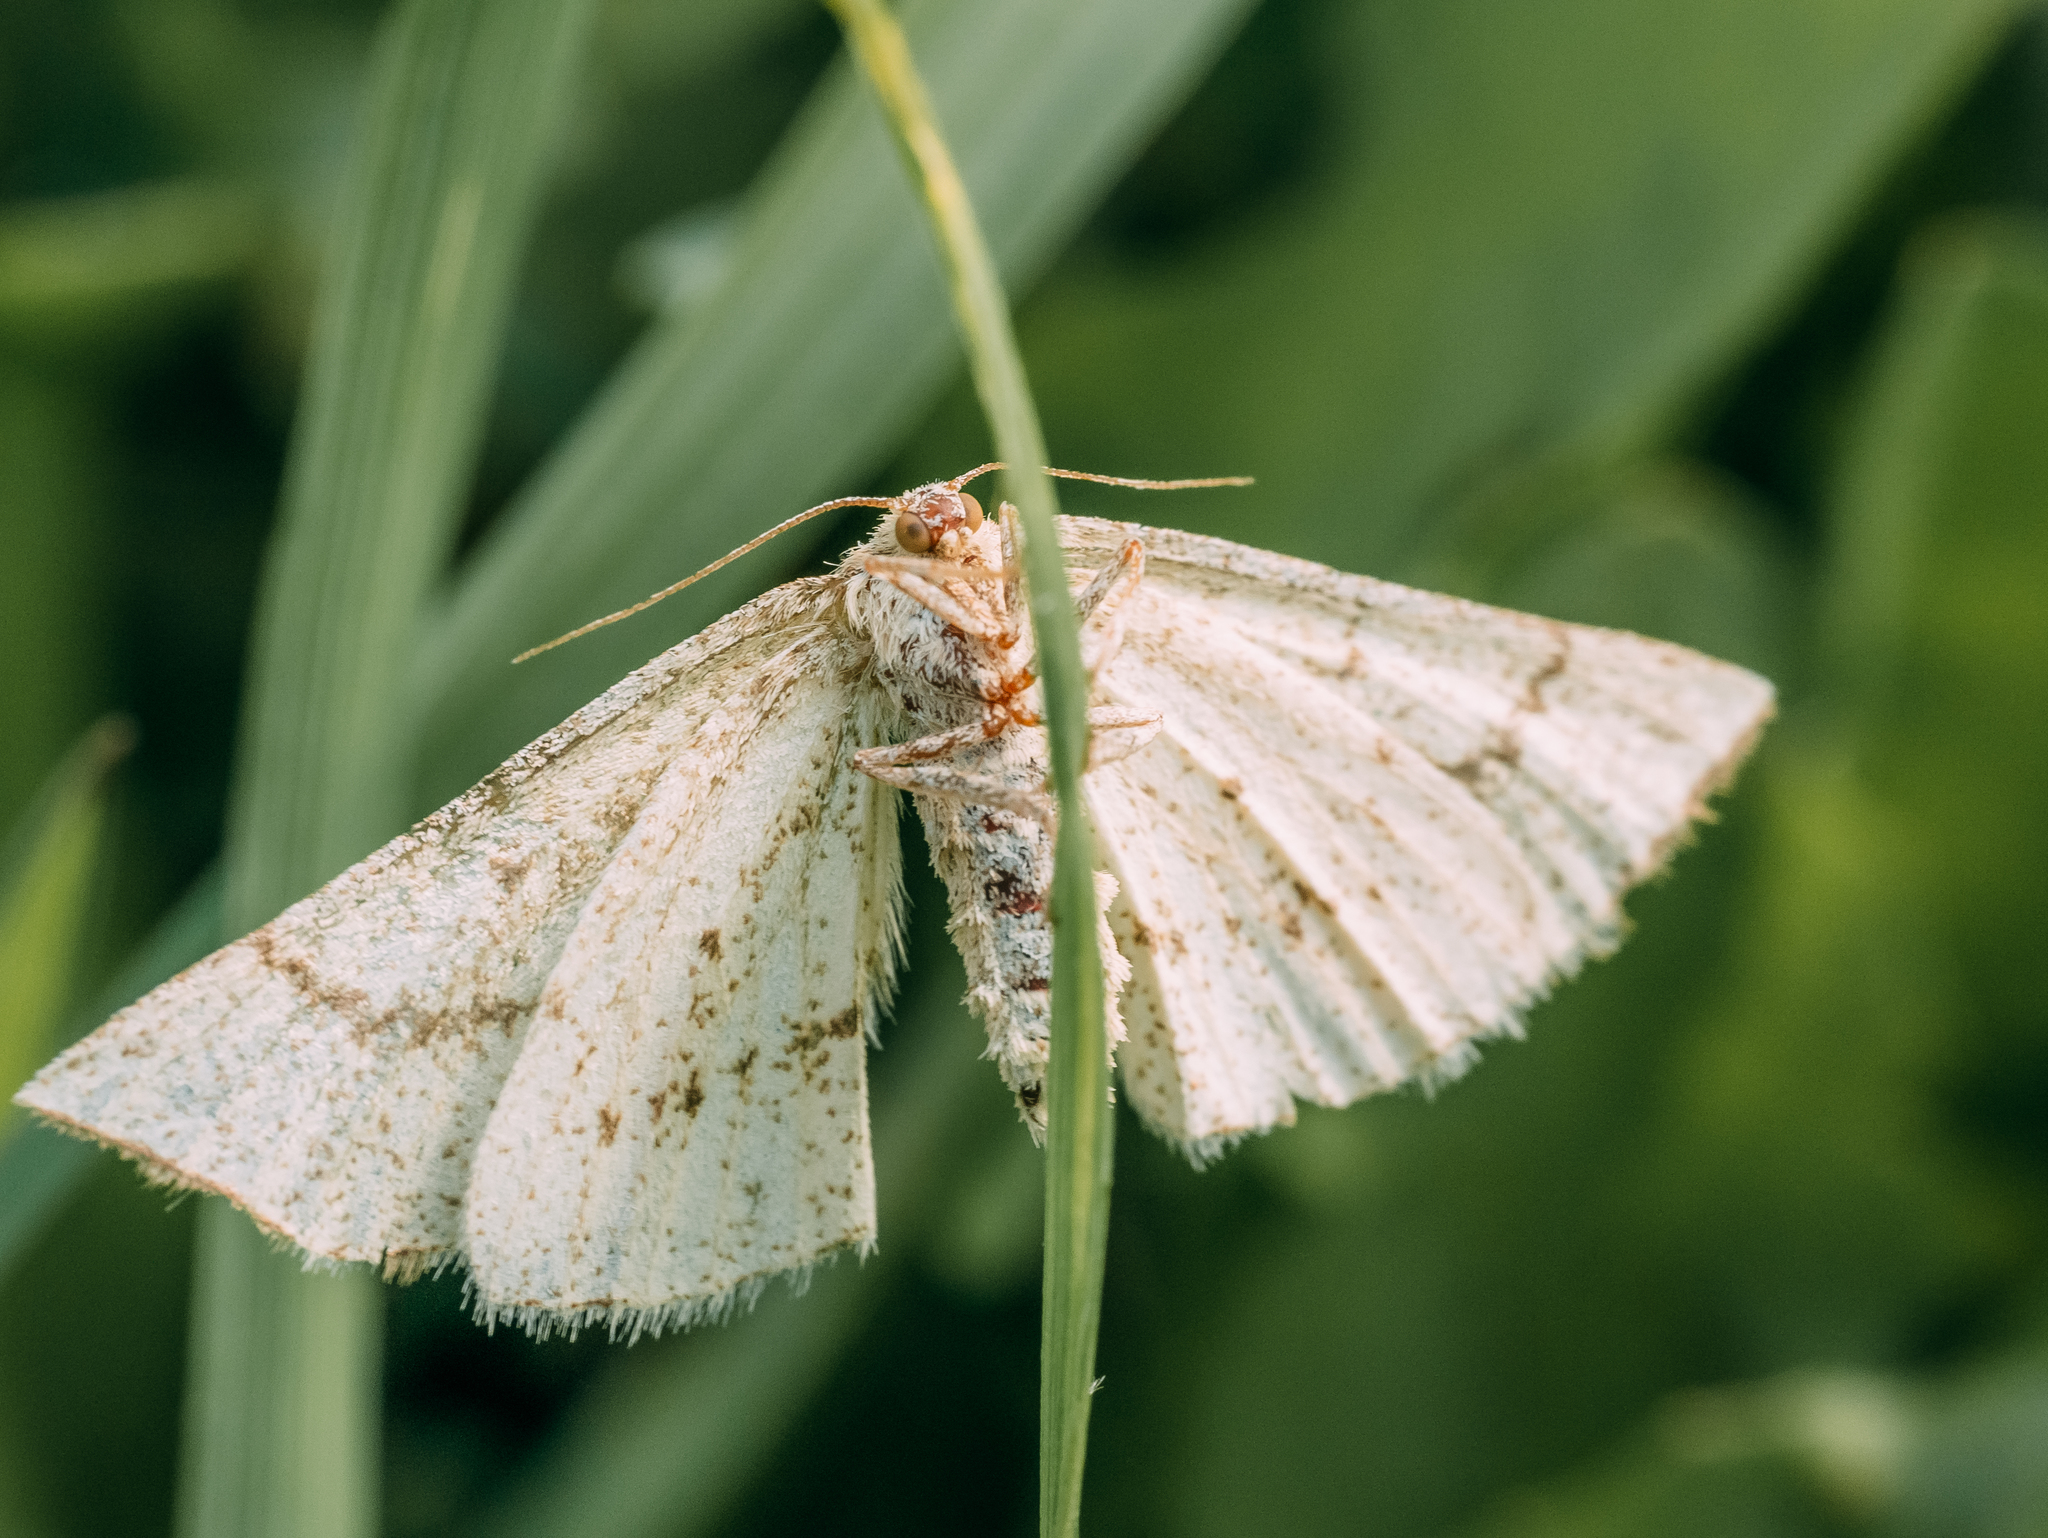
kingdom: Animalia
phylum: Arthropoda
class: Insecta
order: Lepidoptera
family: Geometridae
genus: Hypoxystis
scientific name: Hypoxystis pluviaria
